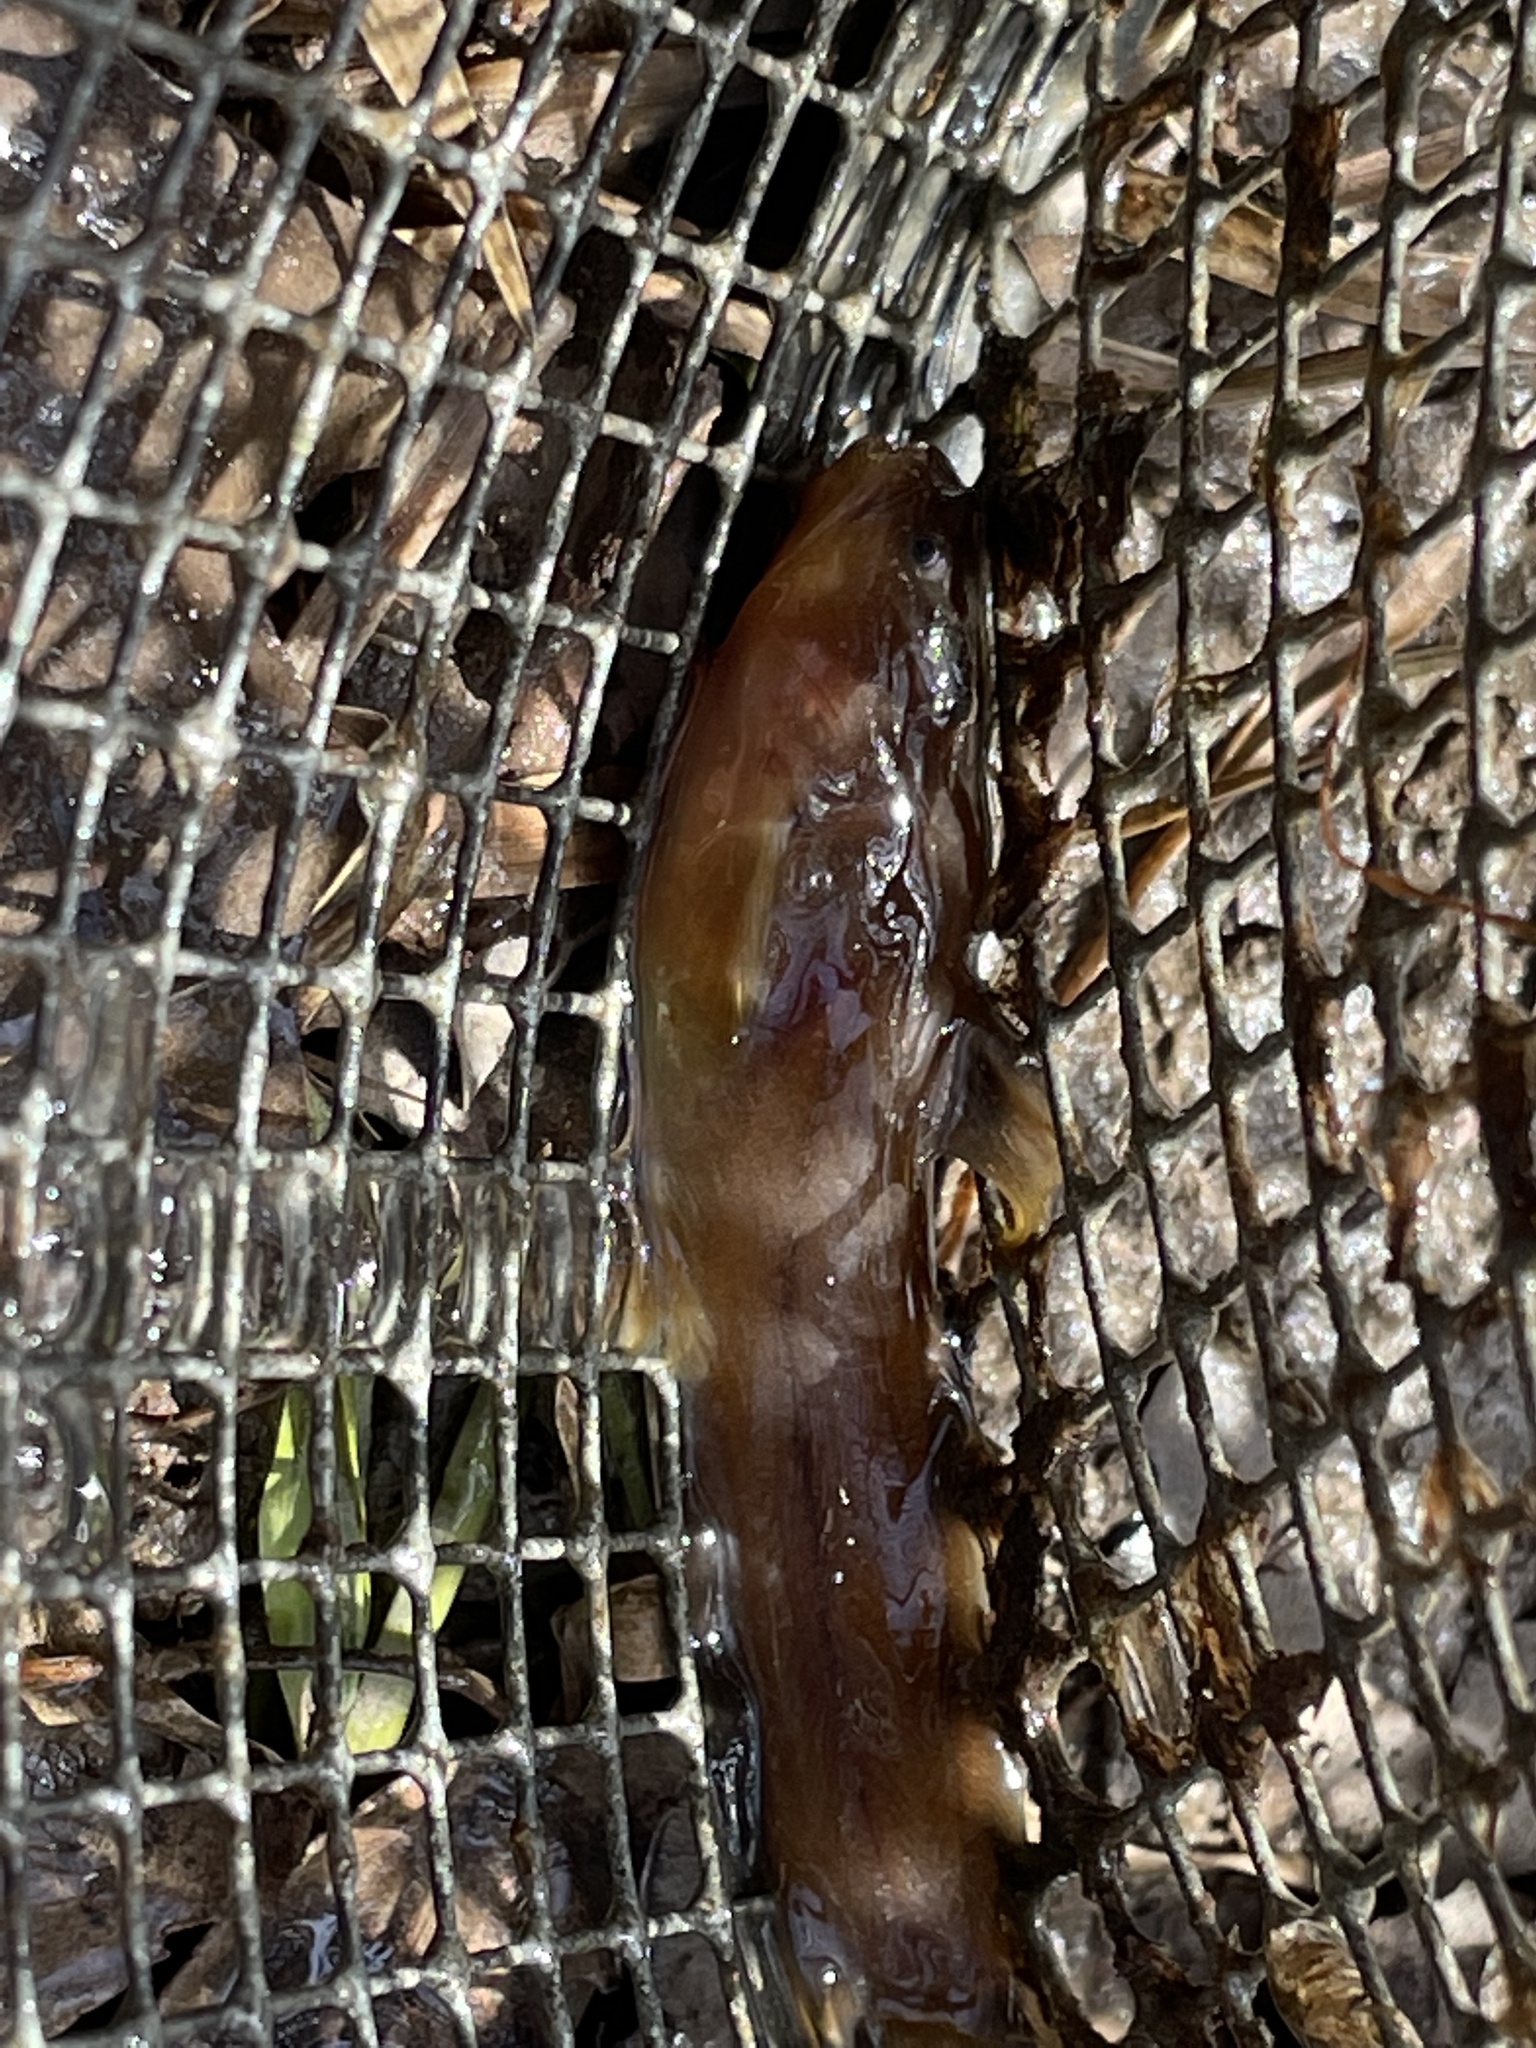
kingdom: Animalia
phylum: Chordata
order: Siluriformes
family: Ictaluridae
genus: Noturus
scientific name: Noturus gyrinus
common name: Tadpole madtom
